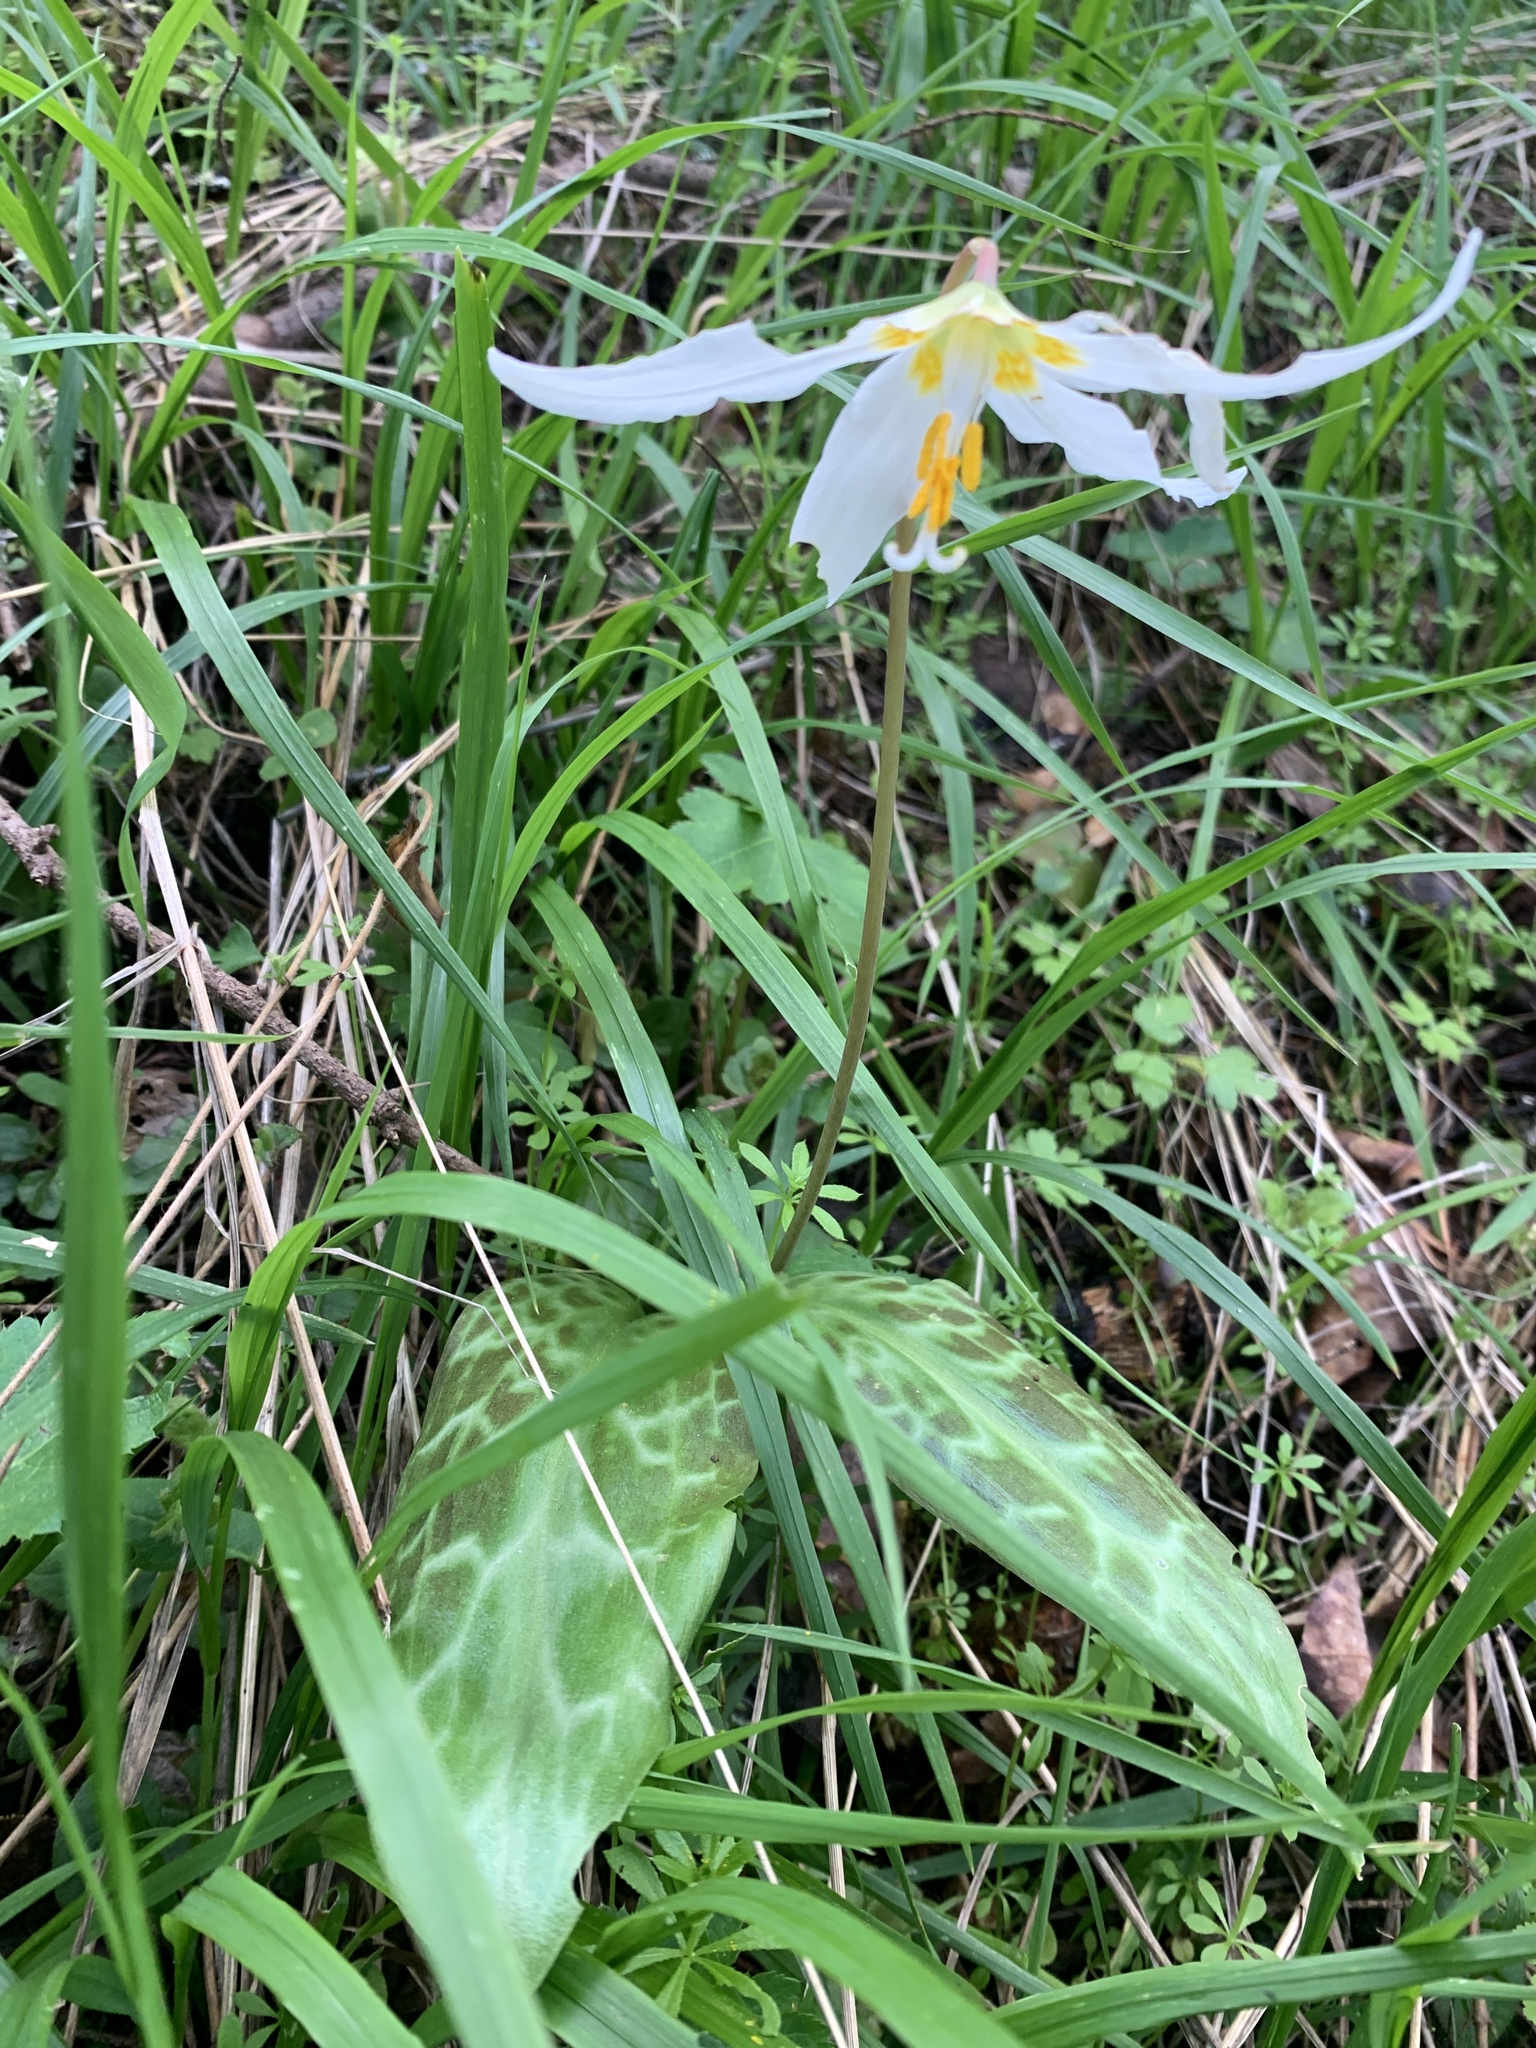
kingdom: Plantae
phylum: Tracheophyta
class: Liliopsida
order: Liliales
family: Liliaceae
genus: Erythronium
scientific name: Erythronium oregonum
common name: Giant adder's-tongue
